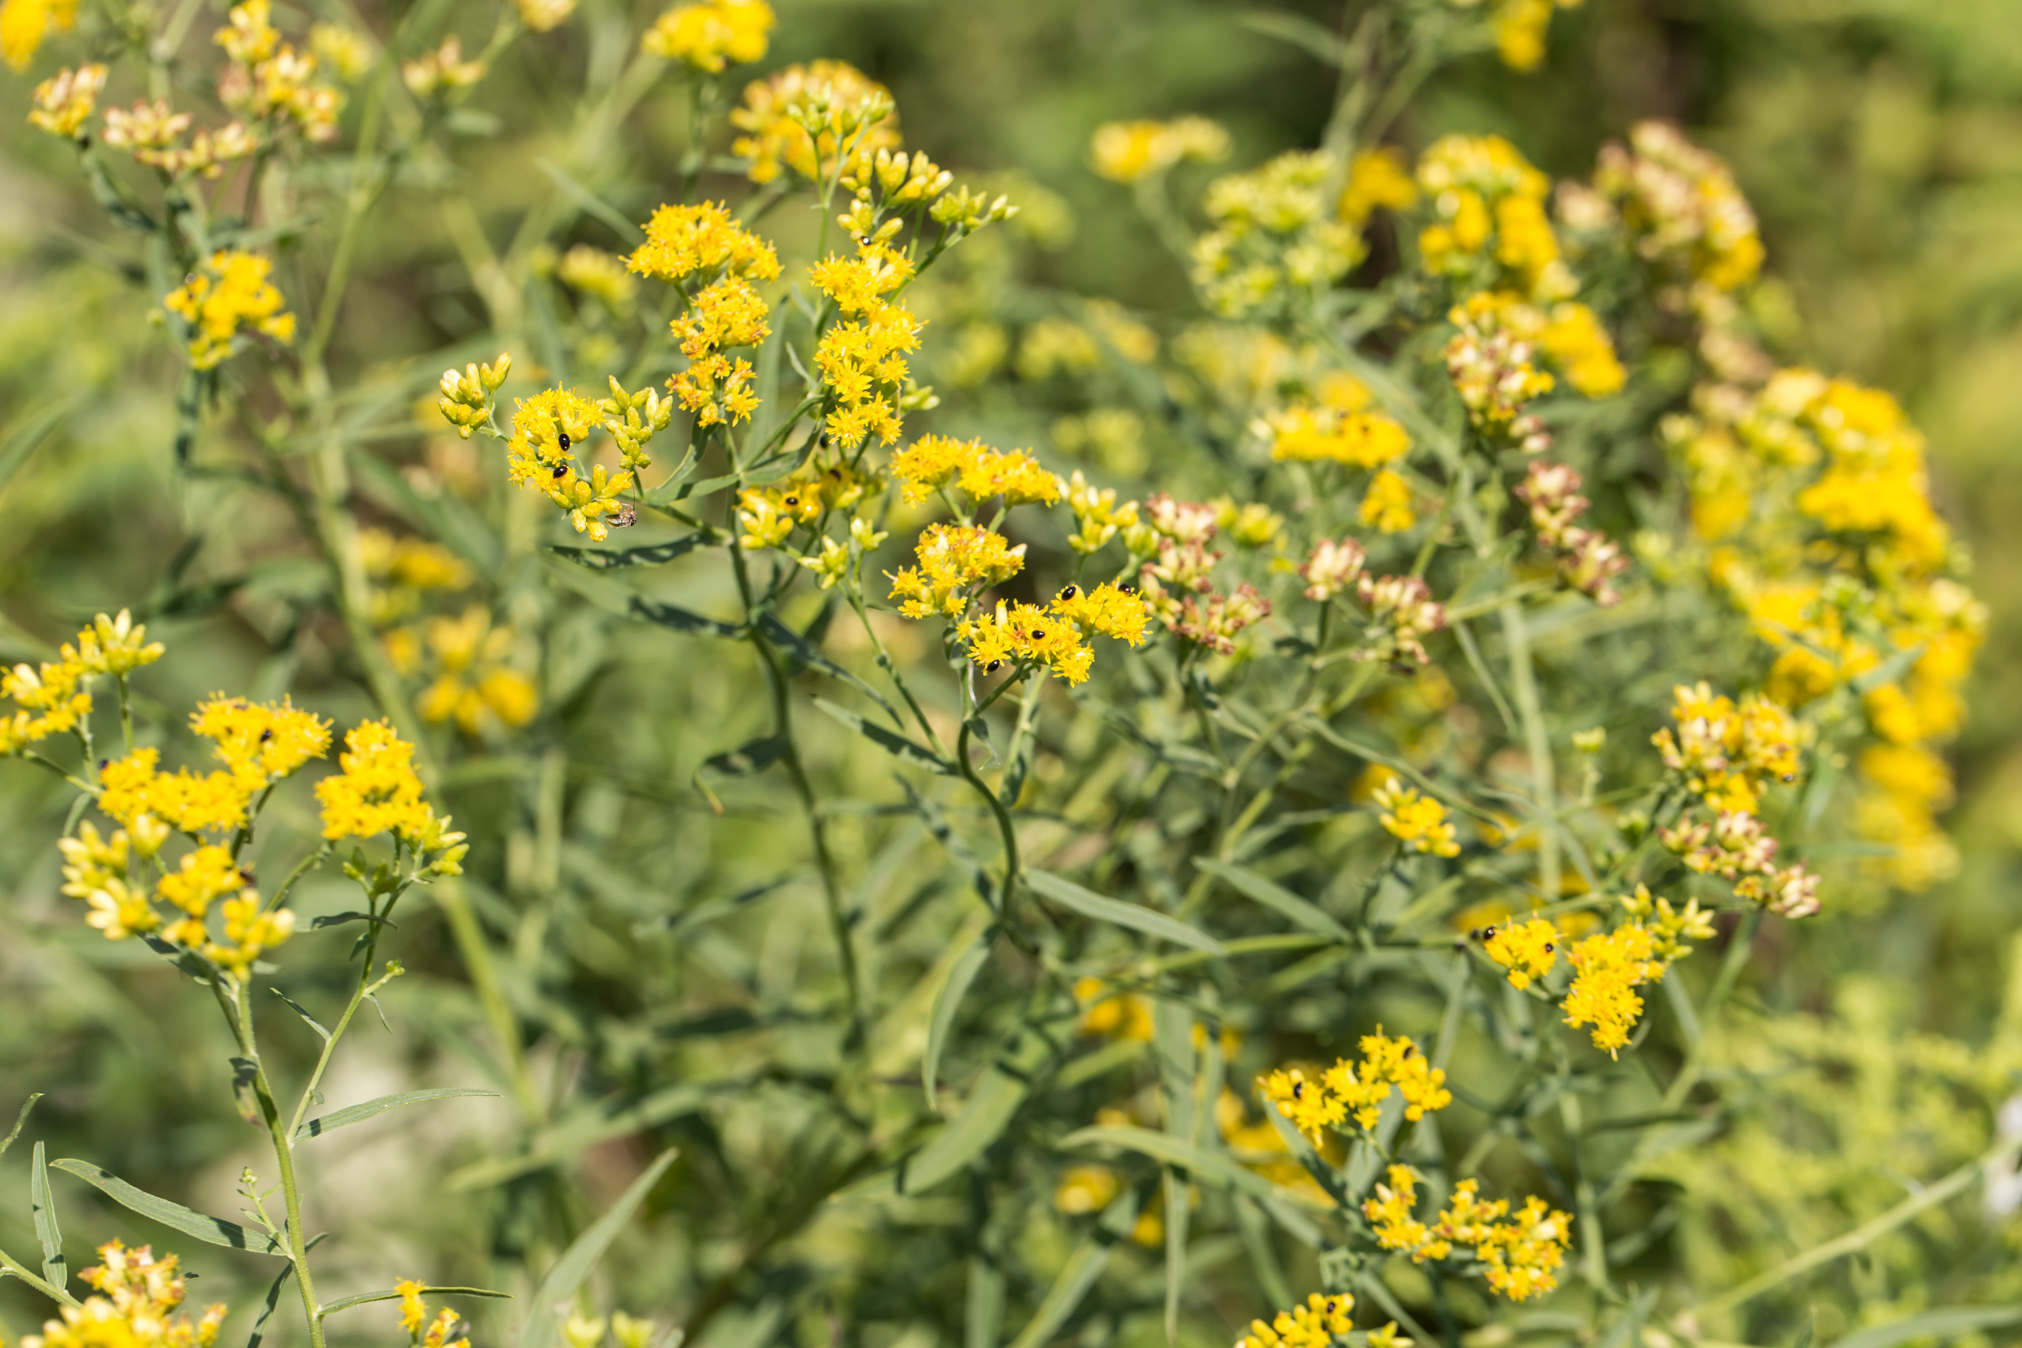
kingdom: Plantae
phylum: Tracheophyta
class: Magnoliopsida
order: Asterales
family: Asteraceae
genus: Euthamia
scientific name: Euthamia graminifolia
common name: Common goldentop
